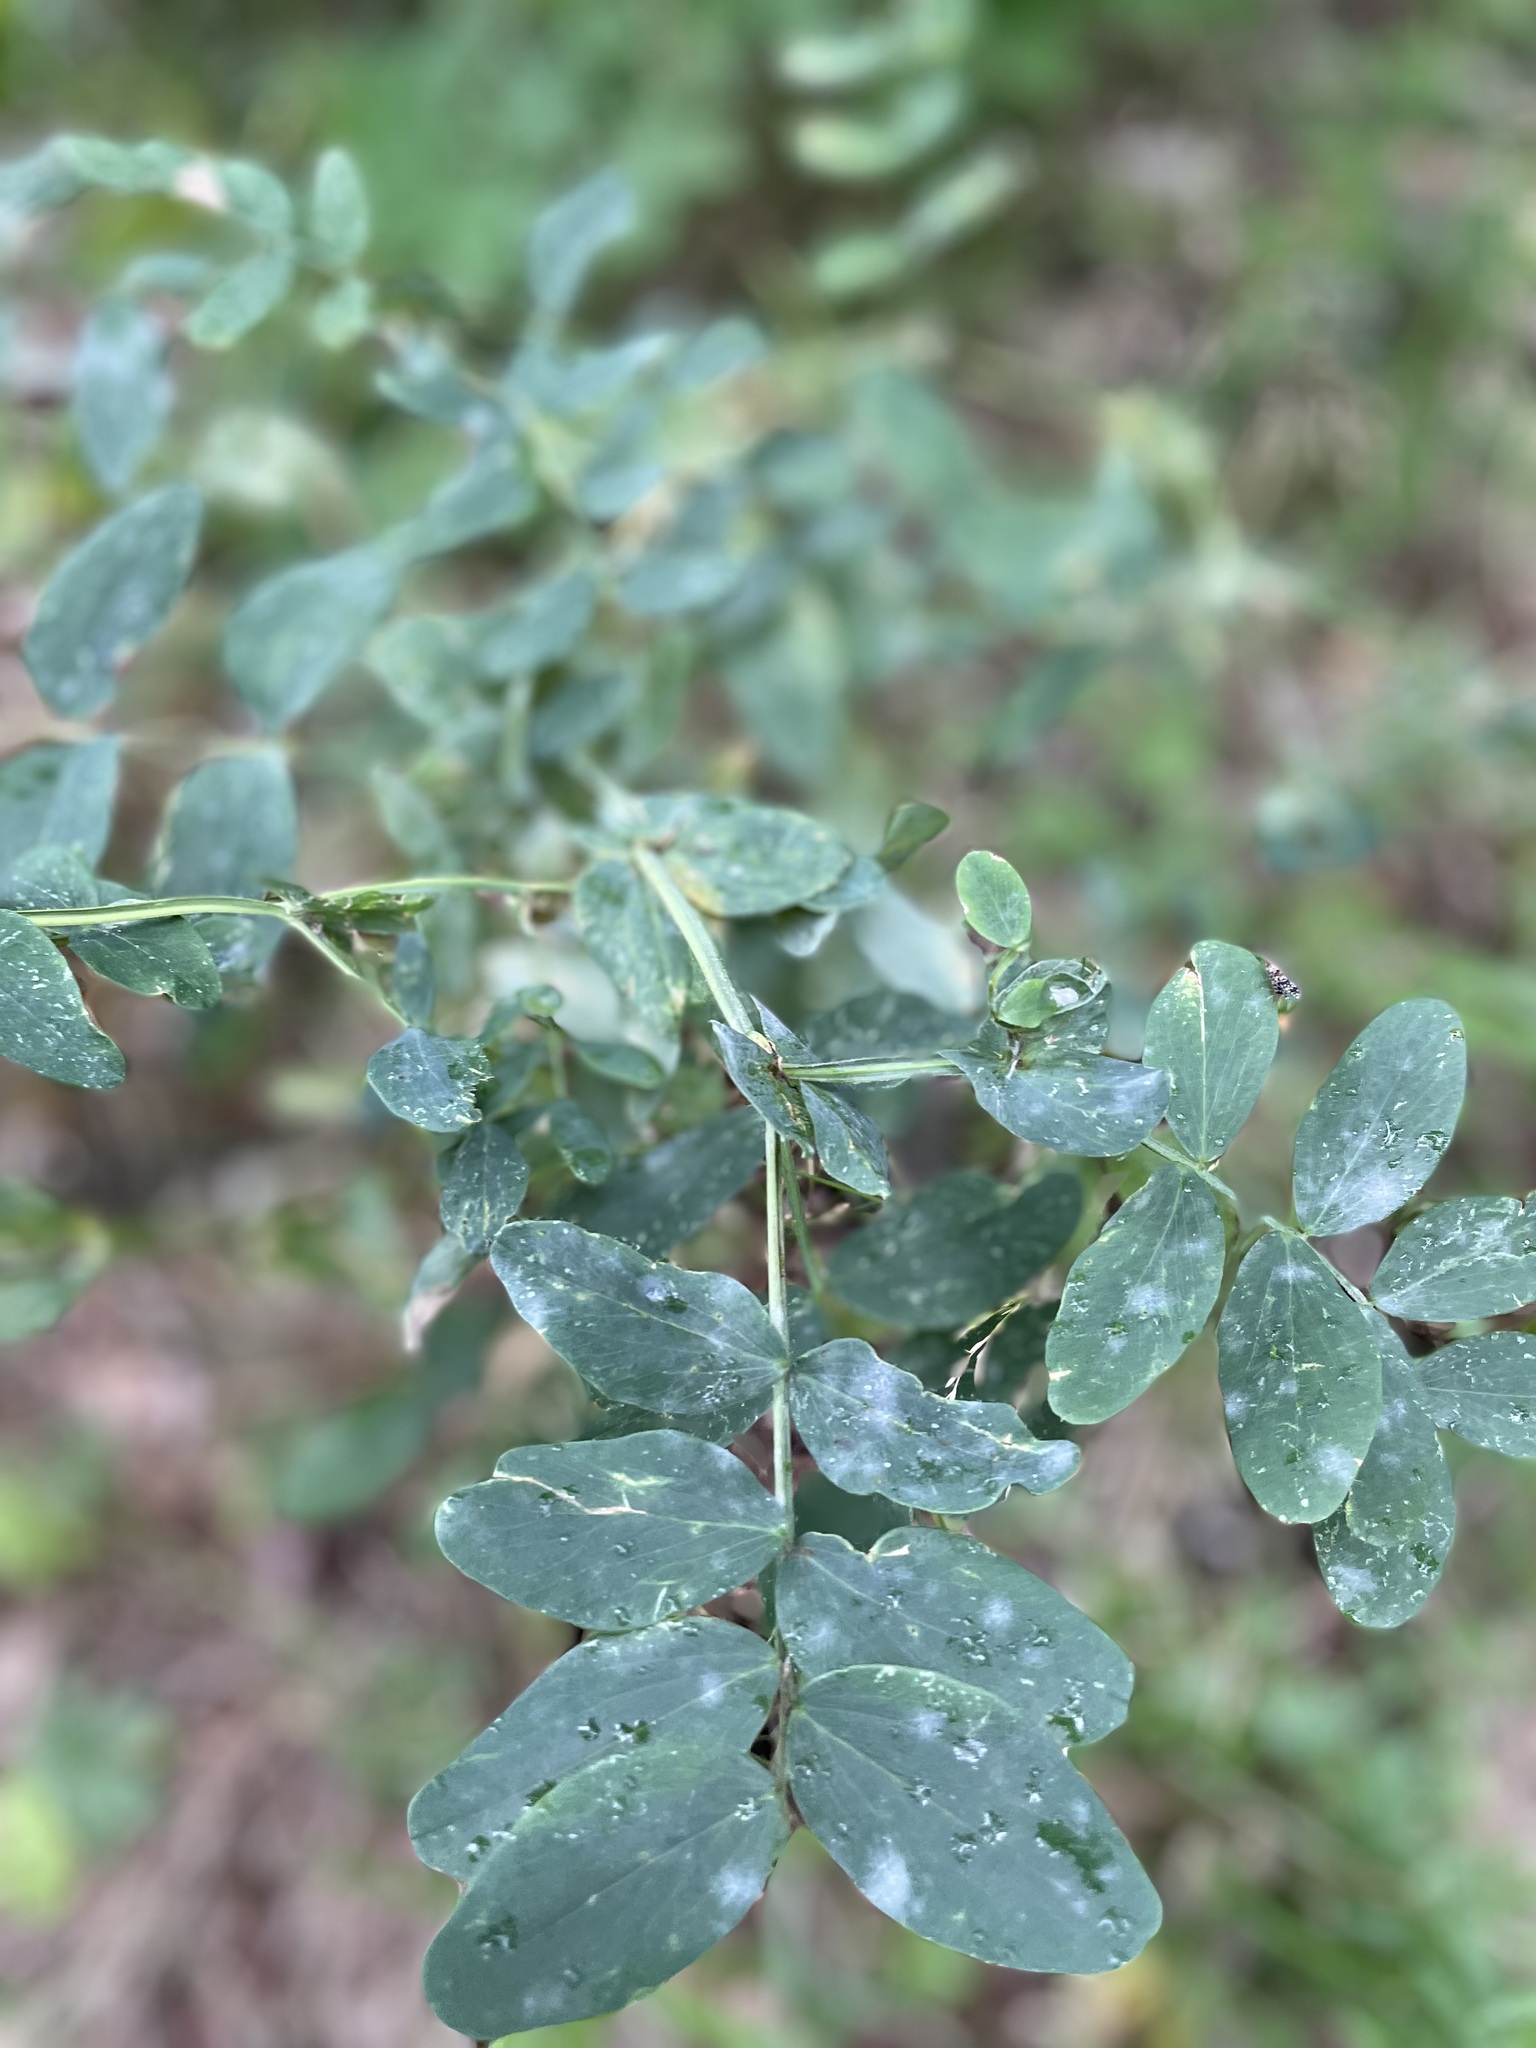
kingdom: Plantae
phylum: Tracheophyta
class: Magnoliopsida
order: Fabales
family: Fabaceae
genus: Caragana
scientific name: Caragana arborescens
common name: Siberian peashrub
